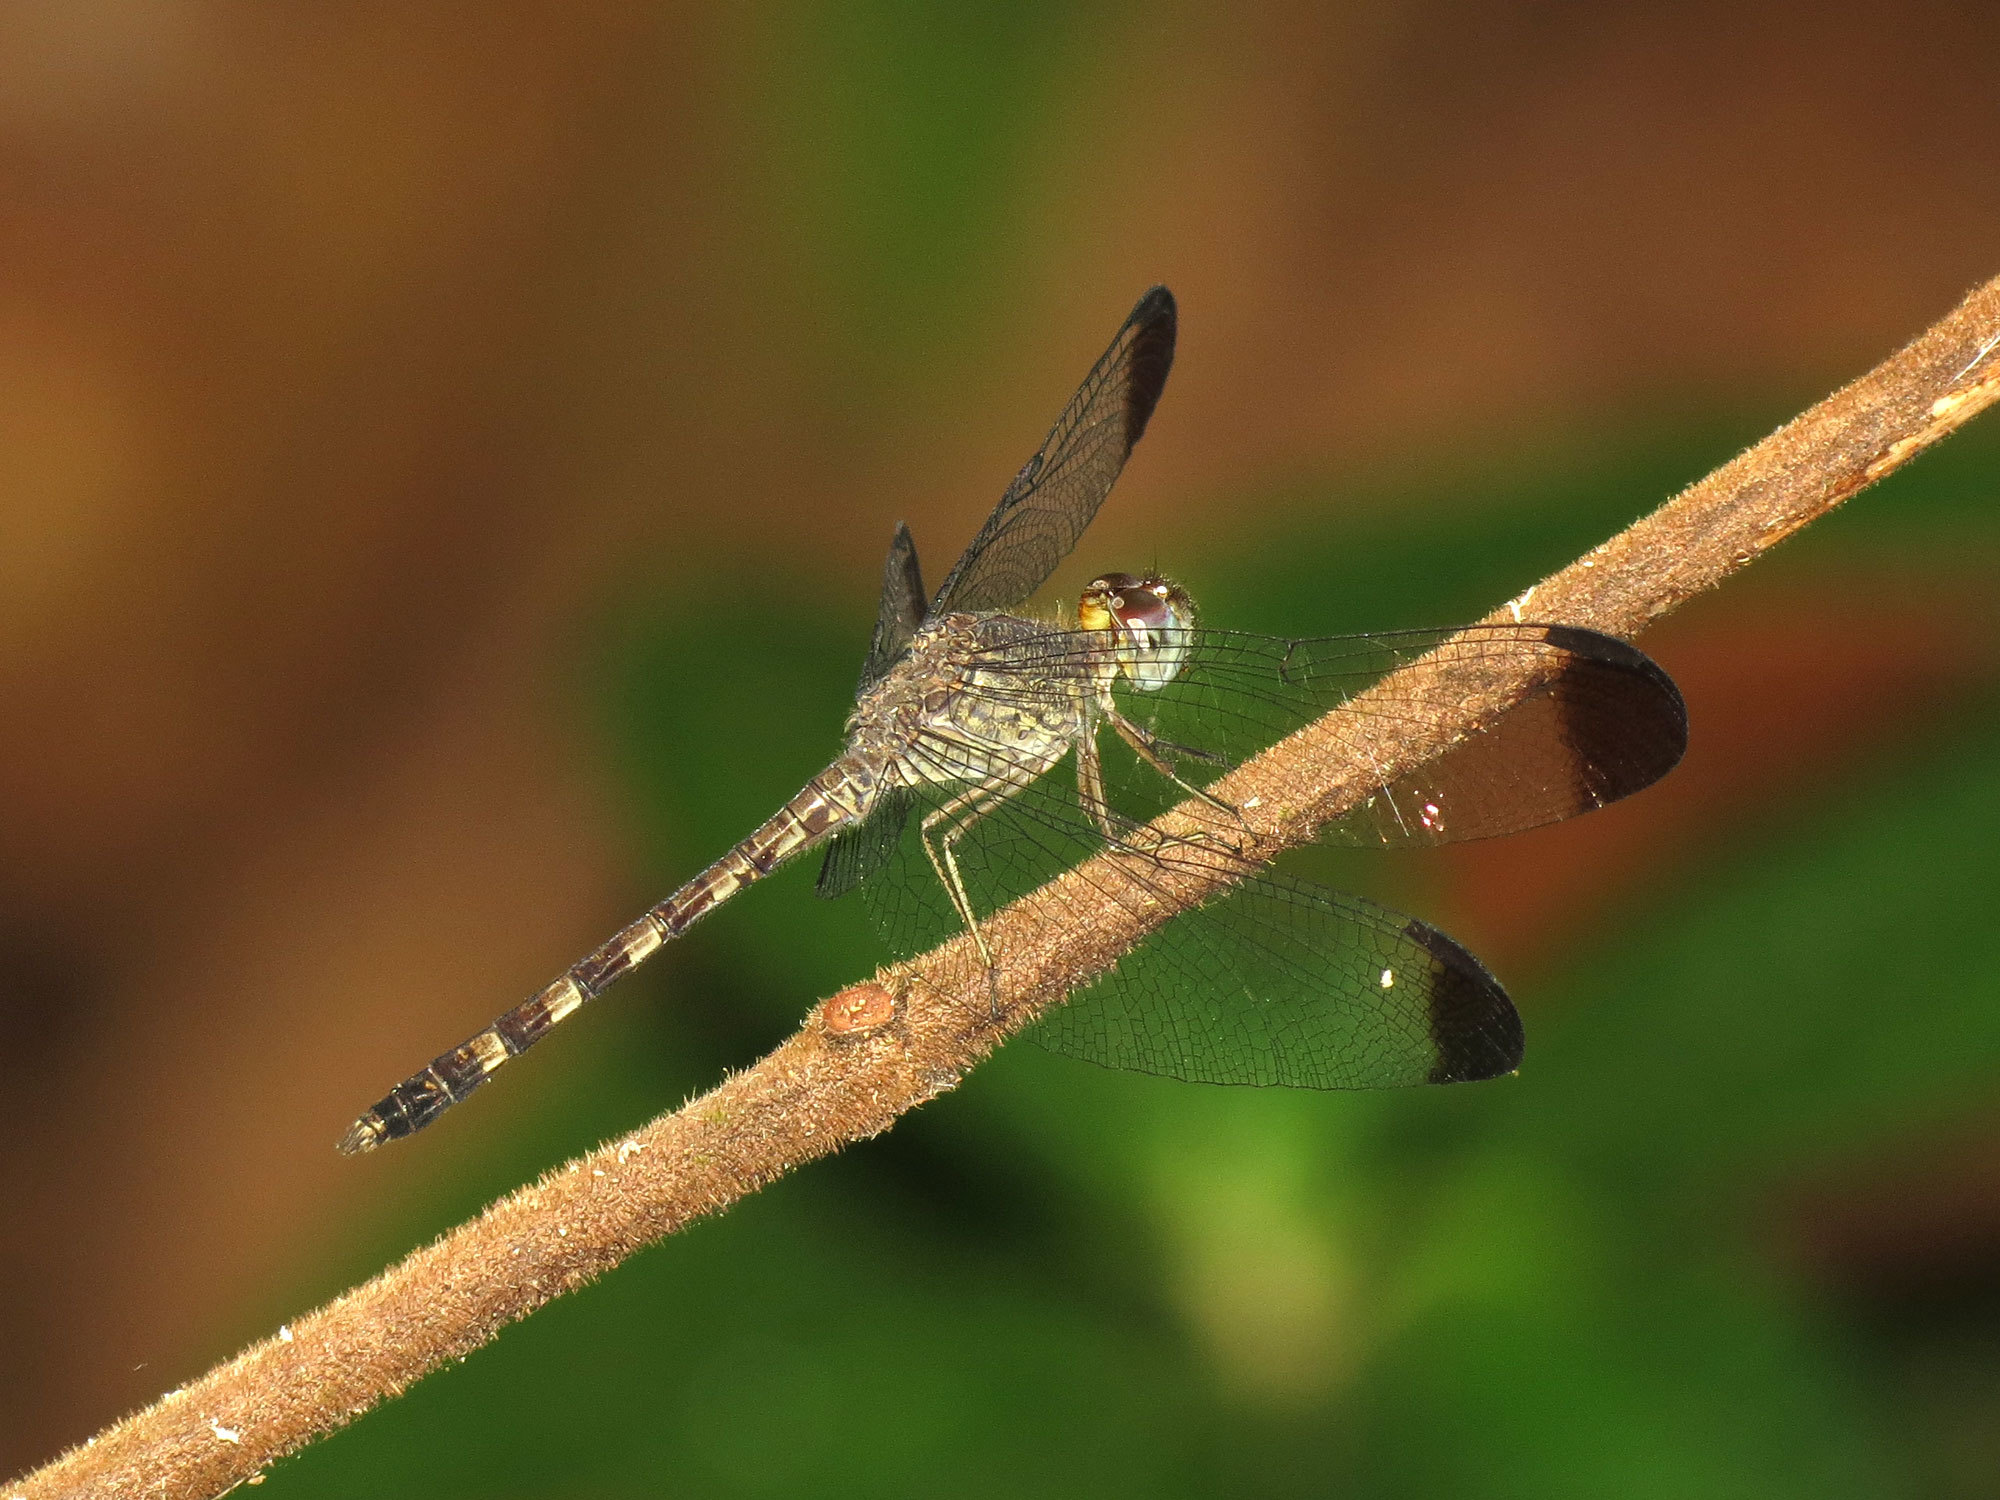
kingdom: Animalia
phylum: Arthropoda
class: Insecta
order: Odonata
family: Libellulidae
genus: Uracis
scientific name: Uracis imbuta
